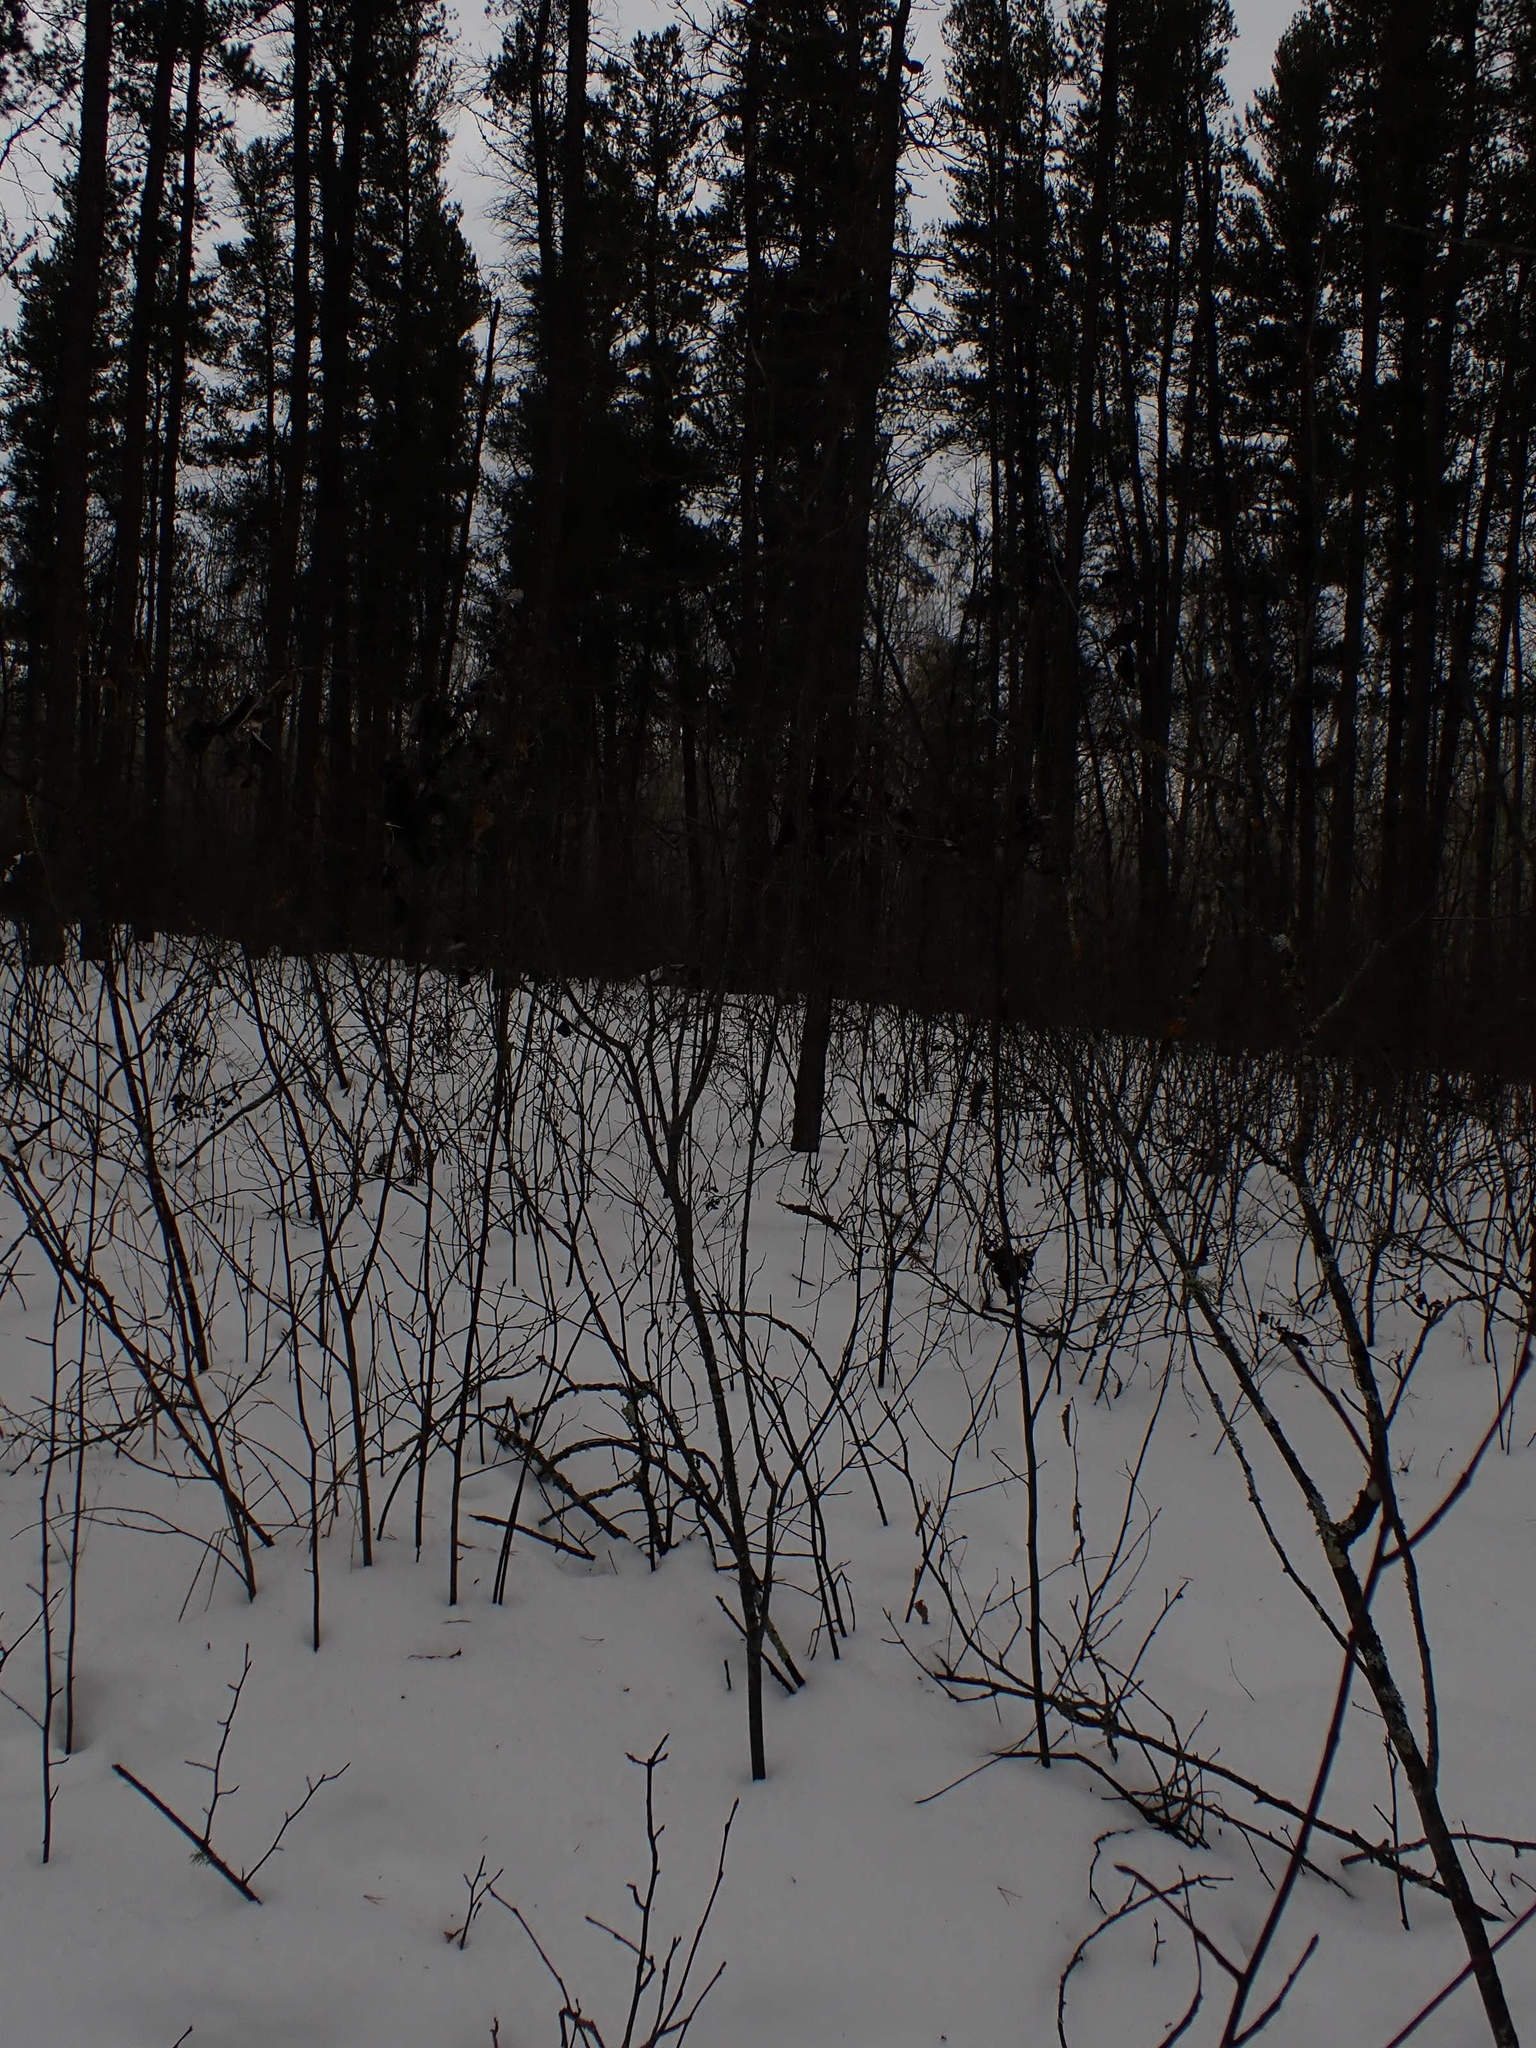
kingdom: Fungi
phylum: Ascomycota
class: Dothideomycetes
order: Venturiales
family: Venturiaceae
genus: Apiosporina
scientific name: Apiosporina collinsii
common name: Black leaf
